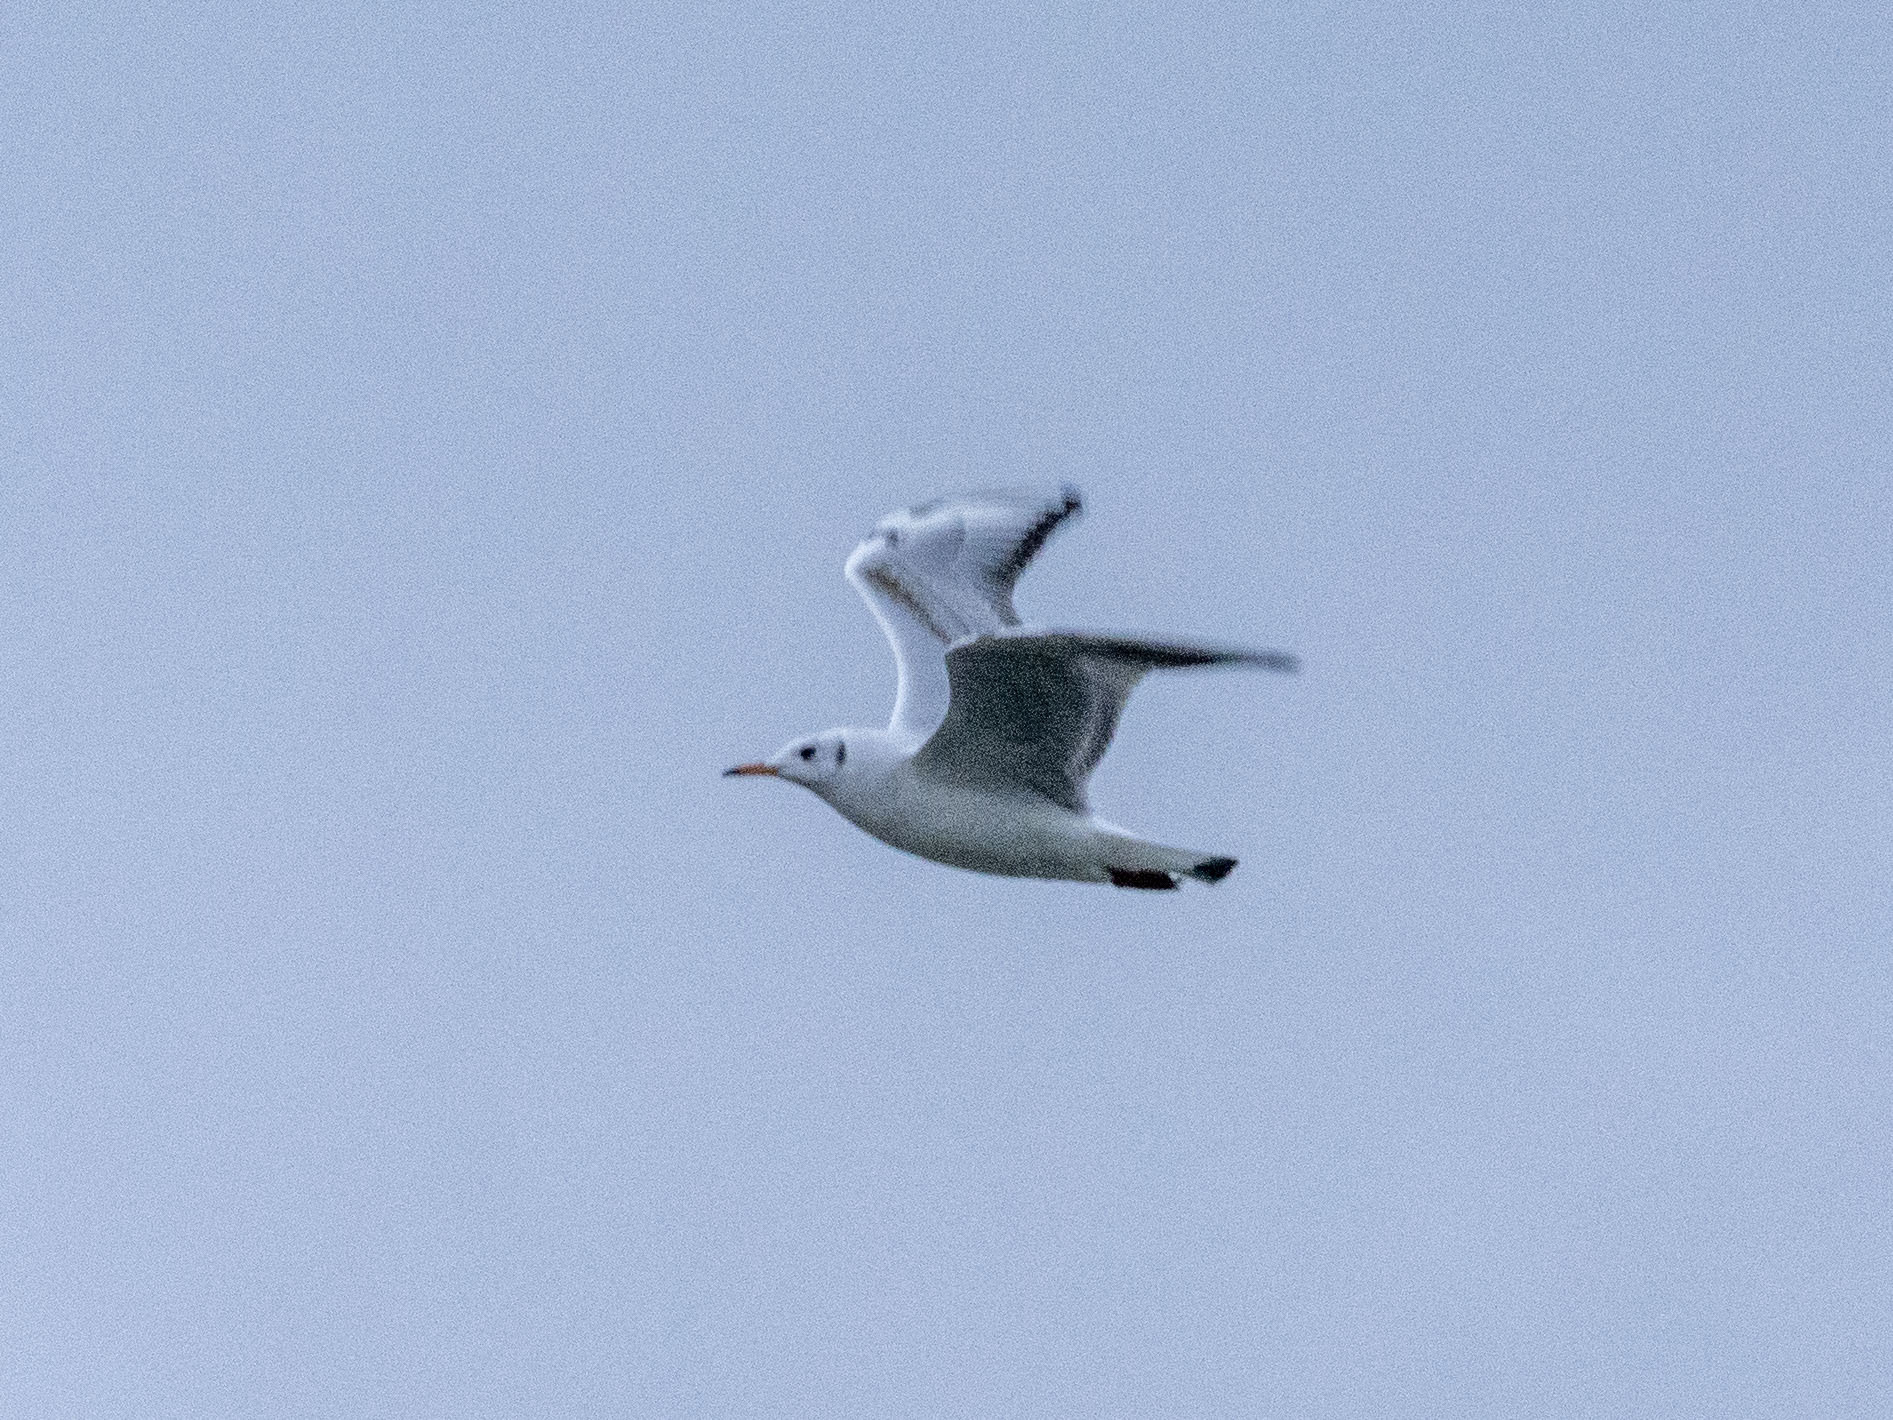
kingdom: Animalia
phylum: Chordata
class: Aves
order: Charadriiformes
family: Laridae
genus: Chroicocephalus
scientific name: Chroicocephalus ridibundus
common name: Black-headed gull
